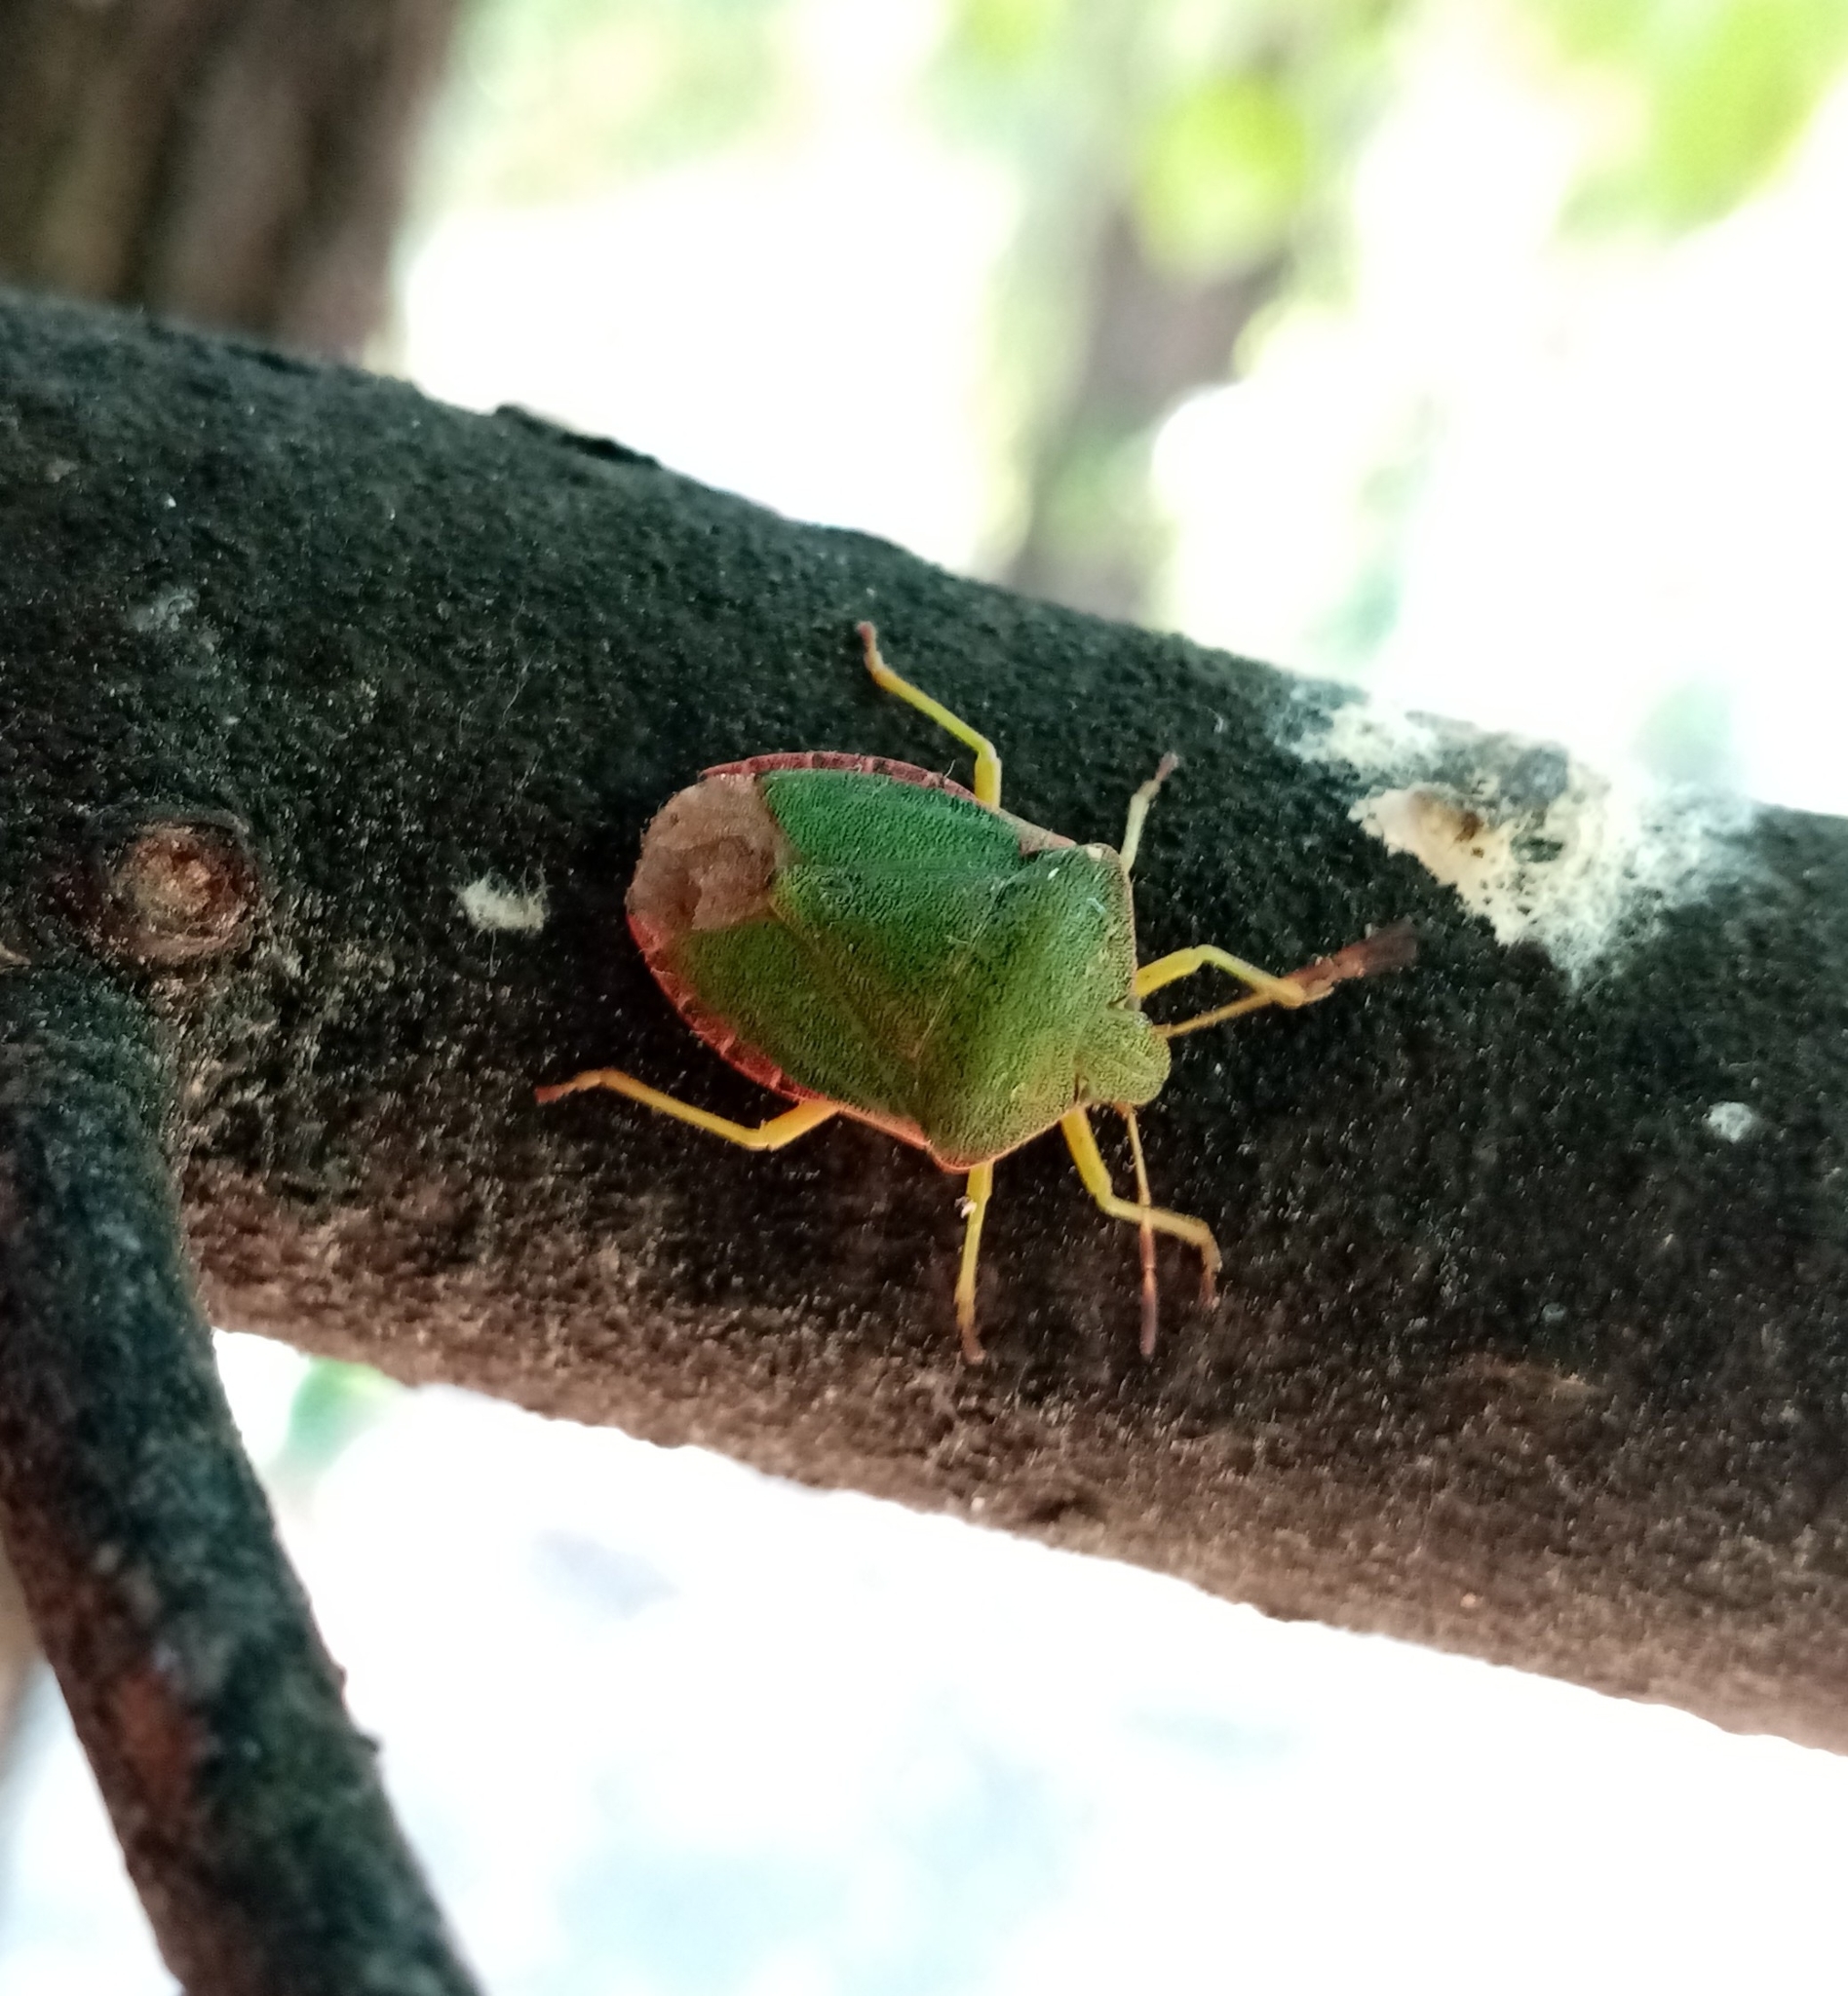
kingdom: Animalia
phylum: Arthropoda
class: Insecta
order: Hemiptera
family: Pentatomidae
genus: Palomena
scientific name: Palomena prasina
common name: Green shieldbug
